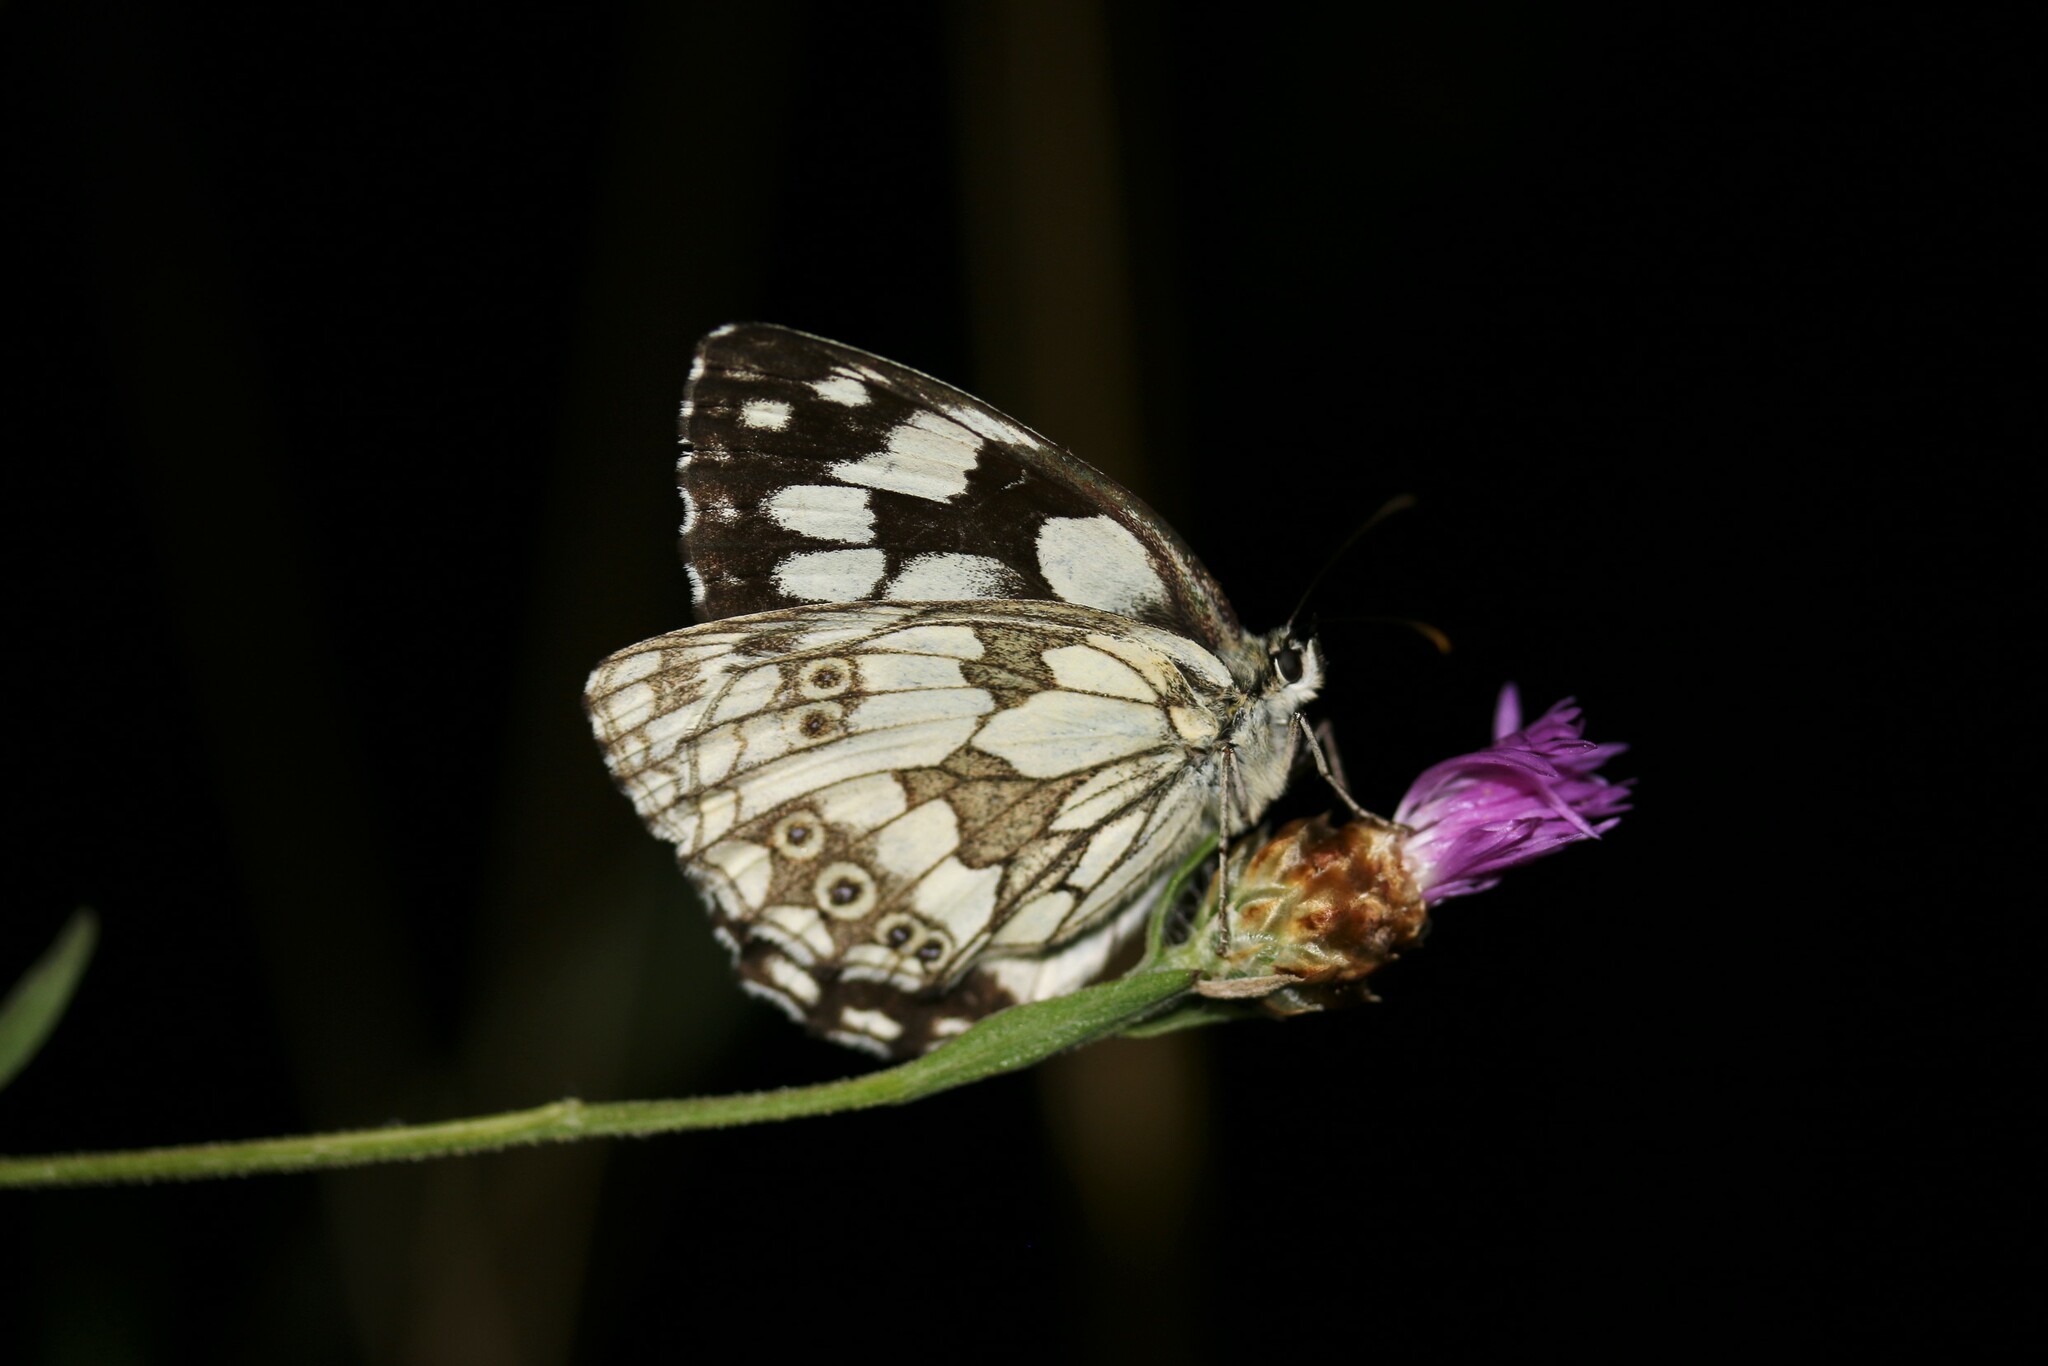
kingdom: Animalia
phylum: Arthropoda
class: Insecta
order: Lepidoptera
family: Nymphalidae
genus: Melanargia
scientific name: Melanargia galathea
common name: Marbled white
